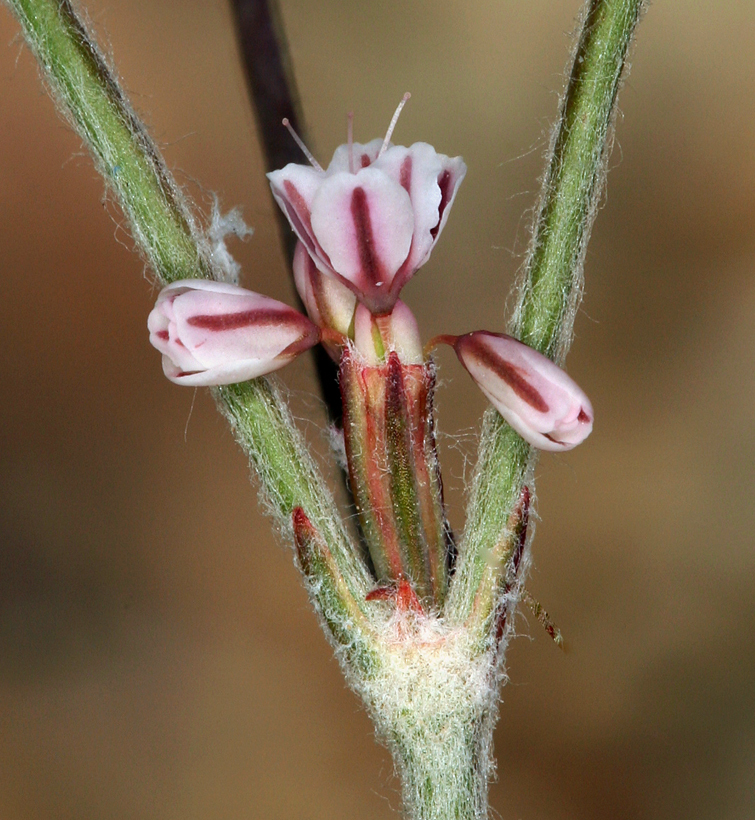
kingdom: Plantae
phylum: Tracheophyta
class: Magnoliopsida
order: Caryophyllales
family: Polygonaceae
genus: Eriogonum
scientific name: Eriogonum vimineum
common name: Wicker buckwheat
